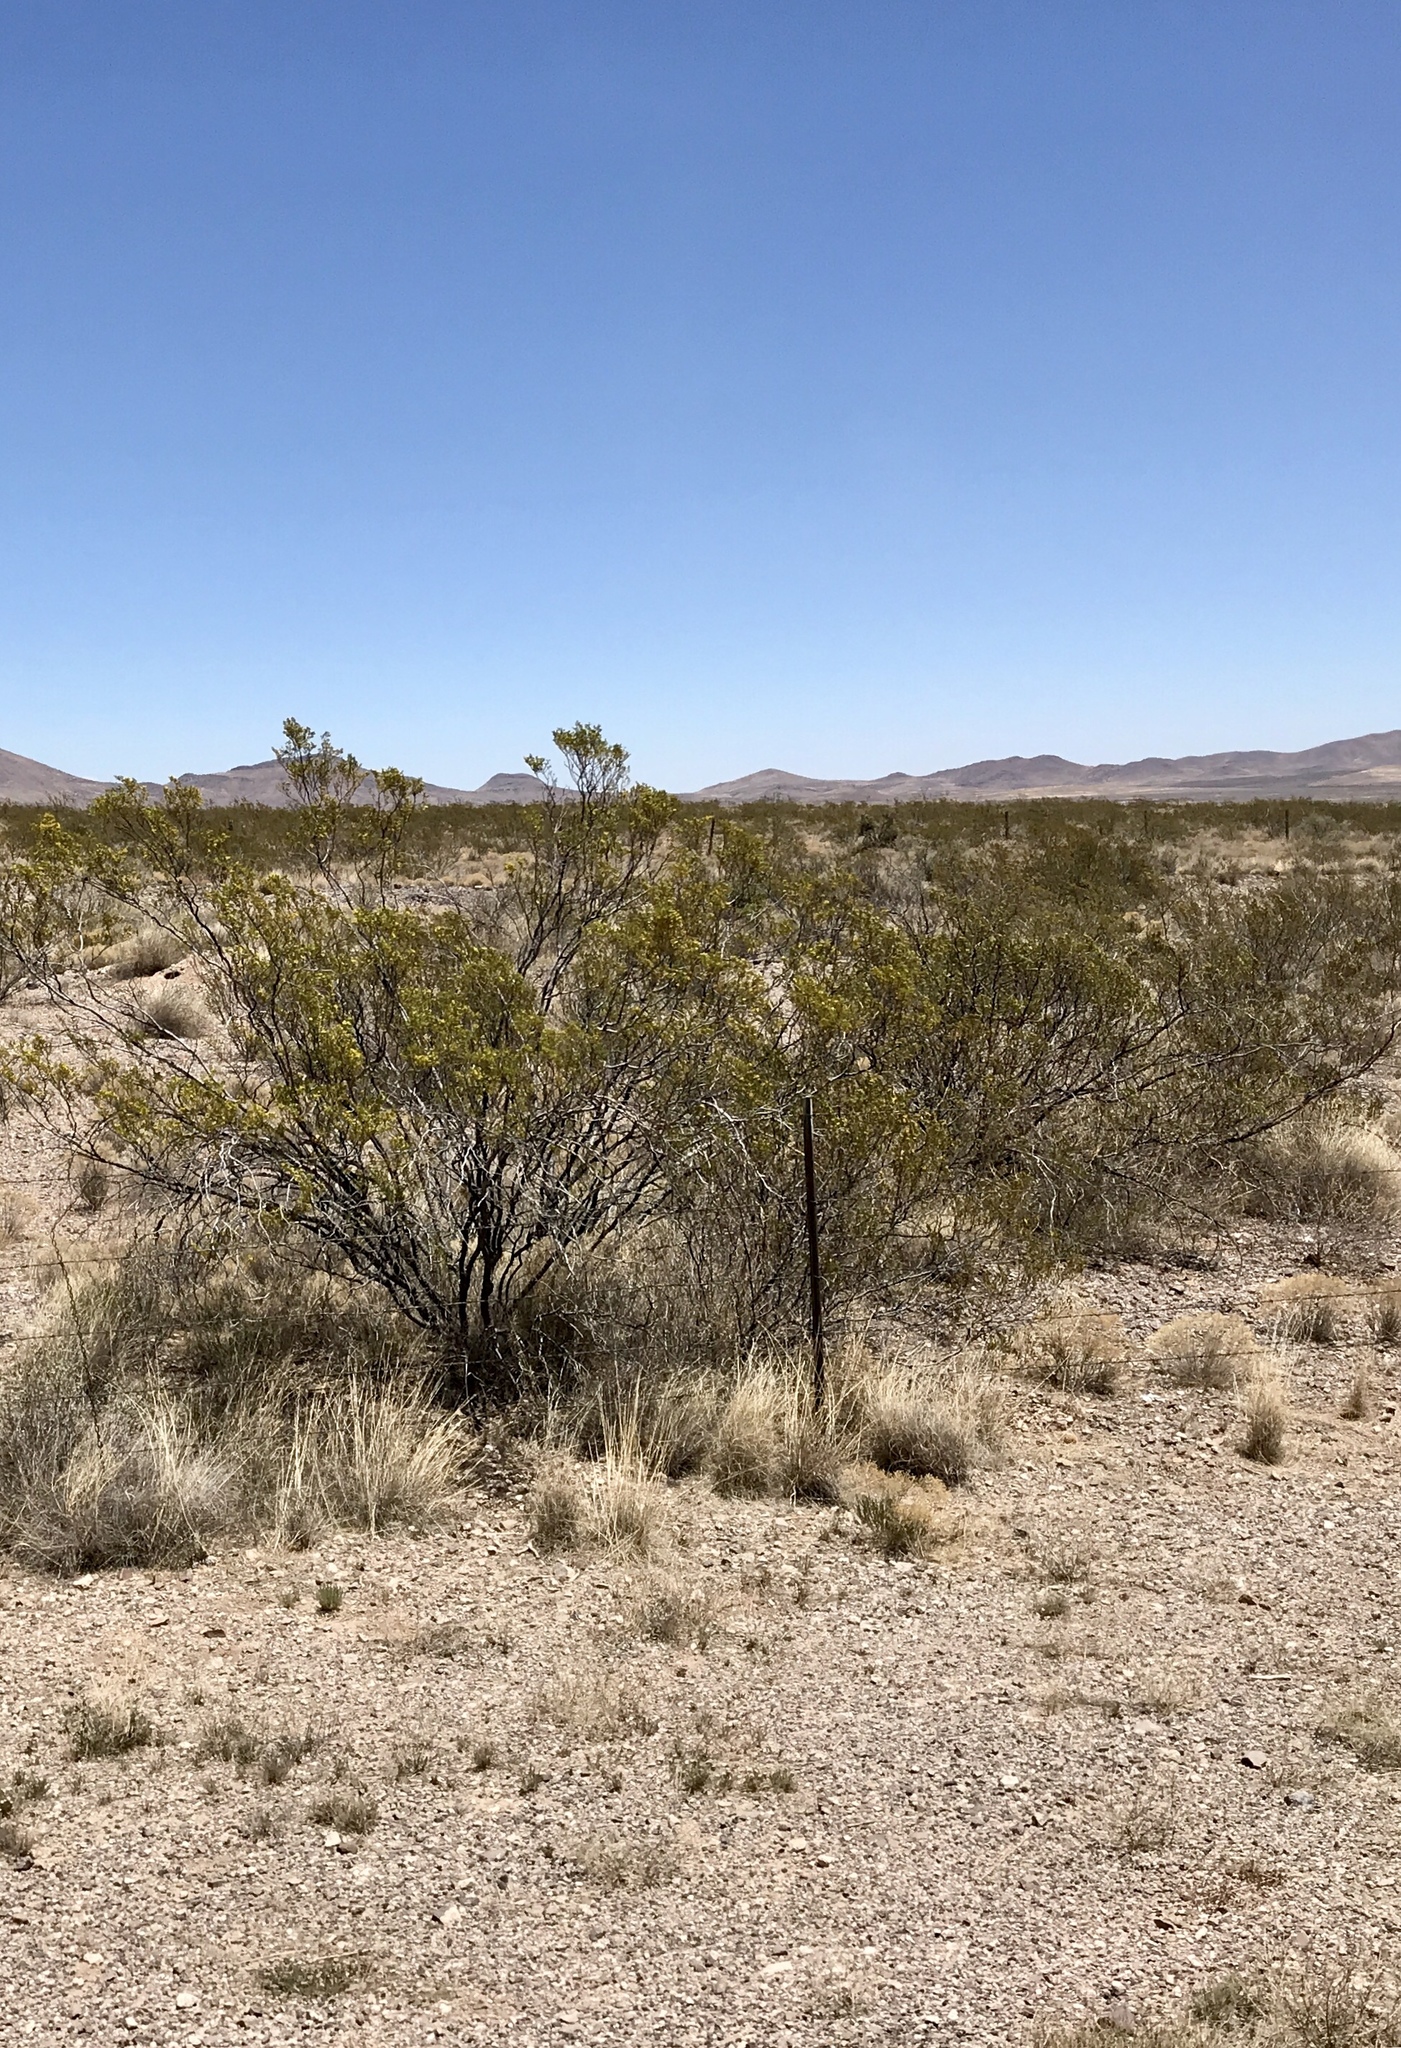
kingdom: Plantae
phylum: Tracheophyta
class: Magnoliopsida
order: Zygophyllales
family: Zygophyllaceae
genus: Larrea
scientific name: Larrea tridentata
